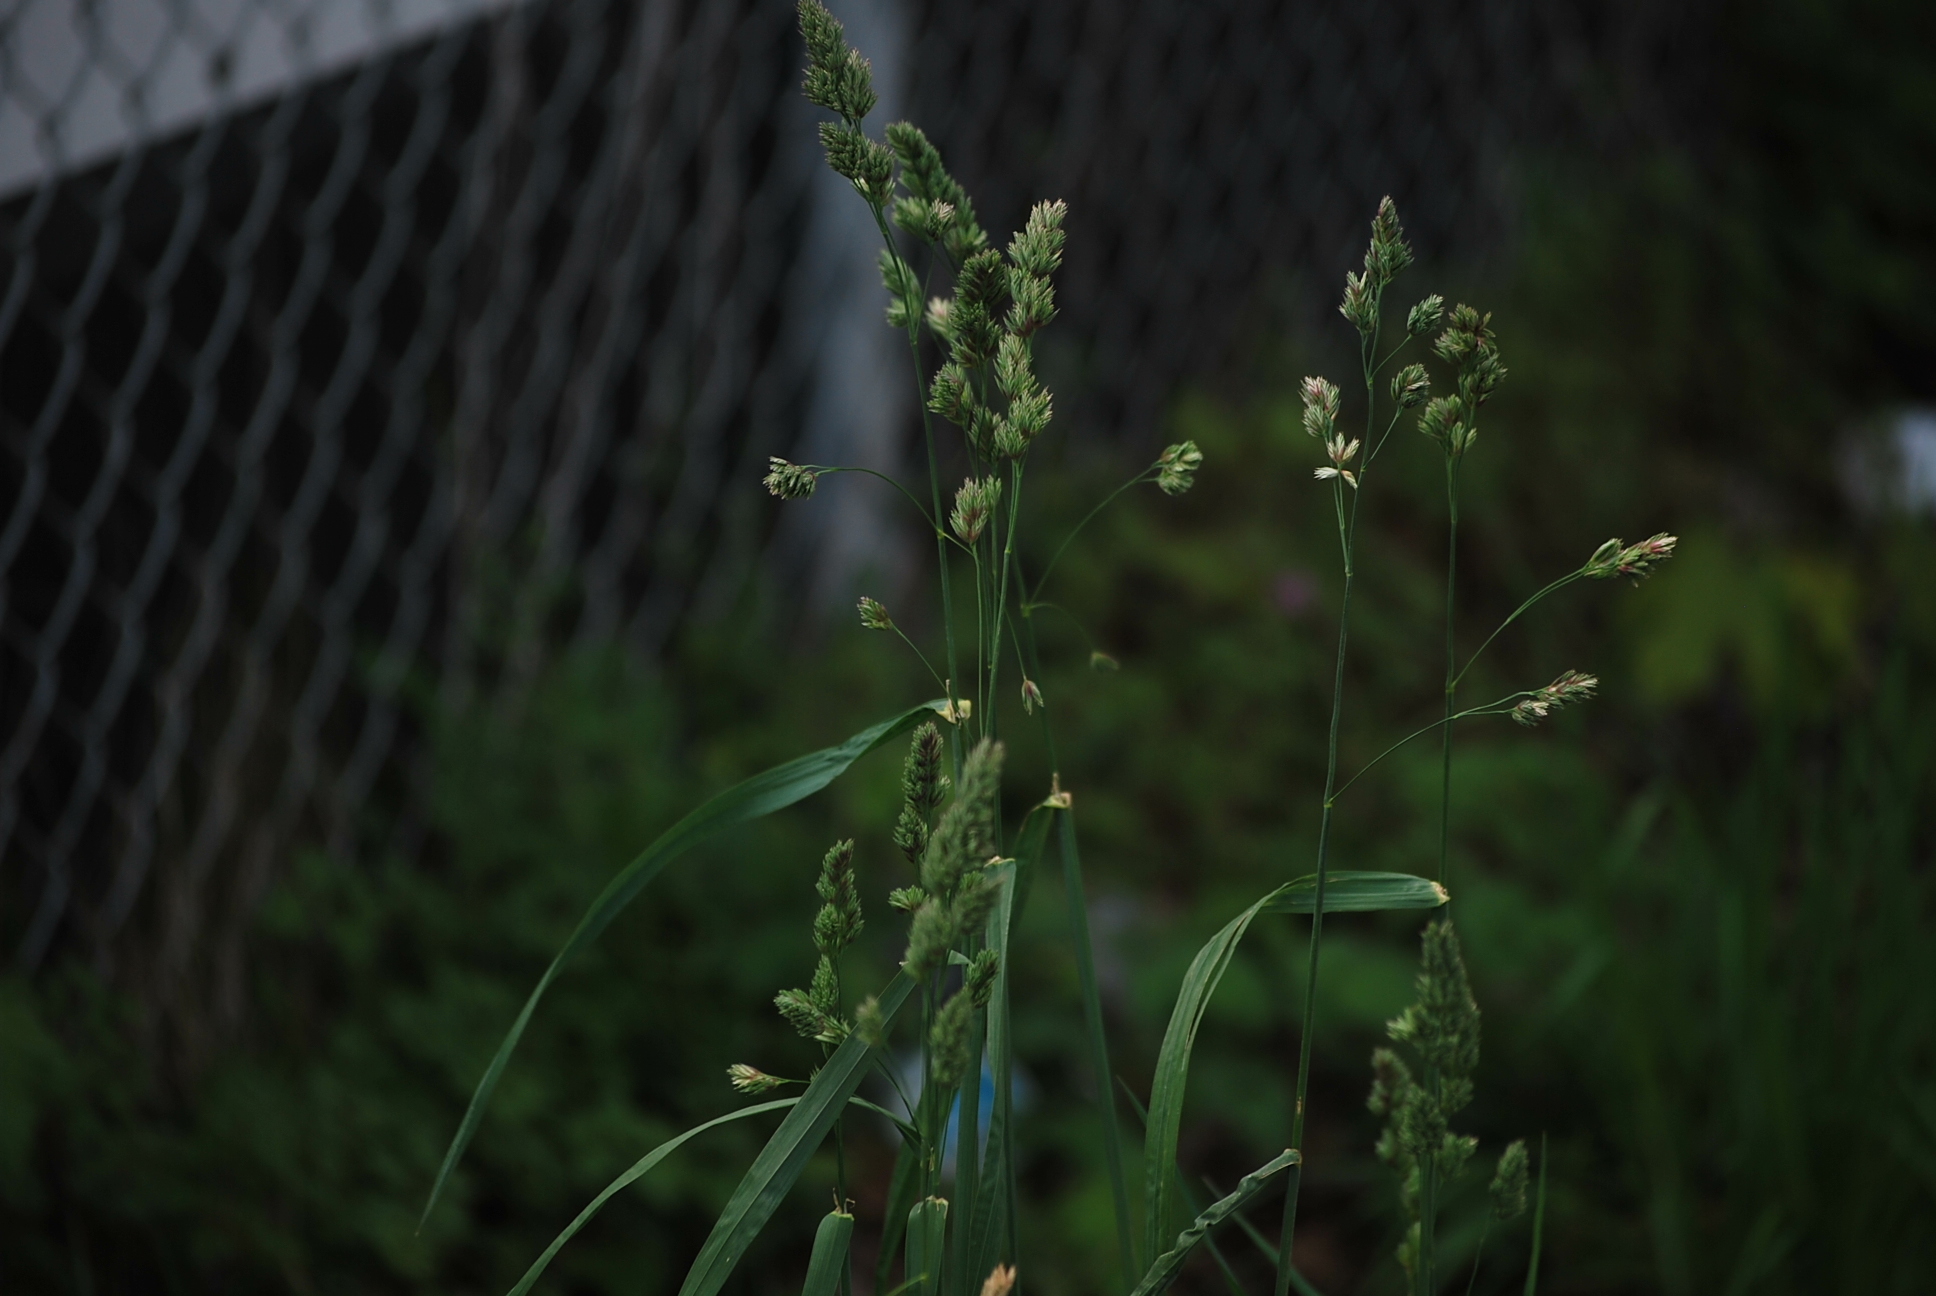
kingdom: Plantae
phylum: Tracheophyta
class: Liliopsida
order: Poales
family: Poaceae
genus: Dactylis
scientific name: Dactylis glomerata
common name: Orchardgrass
